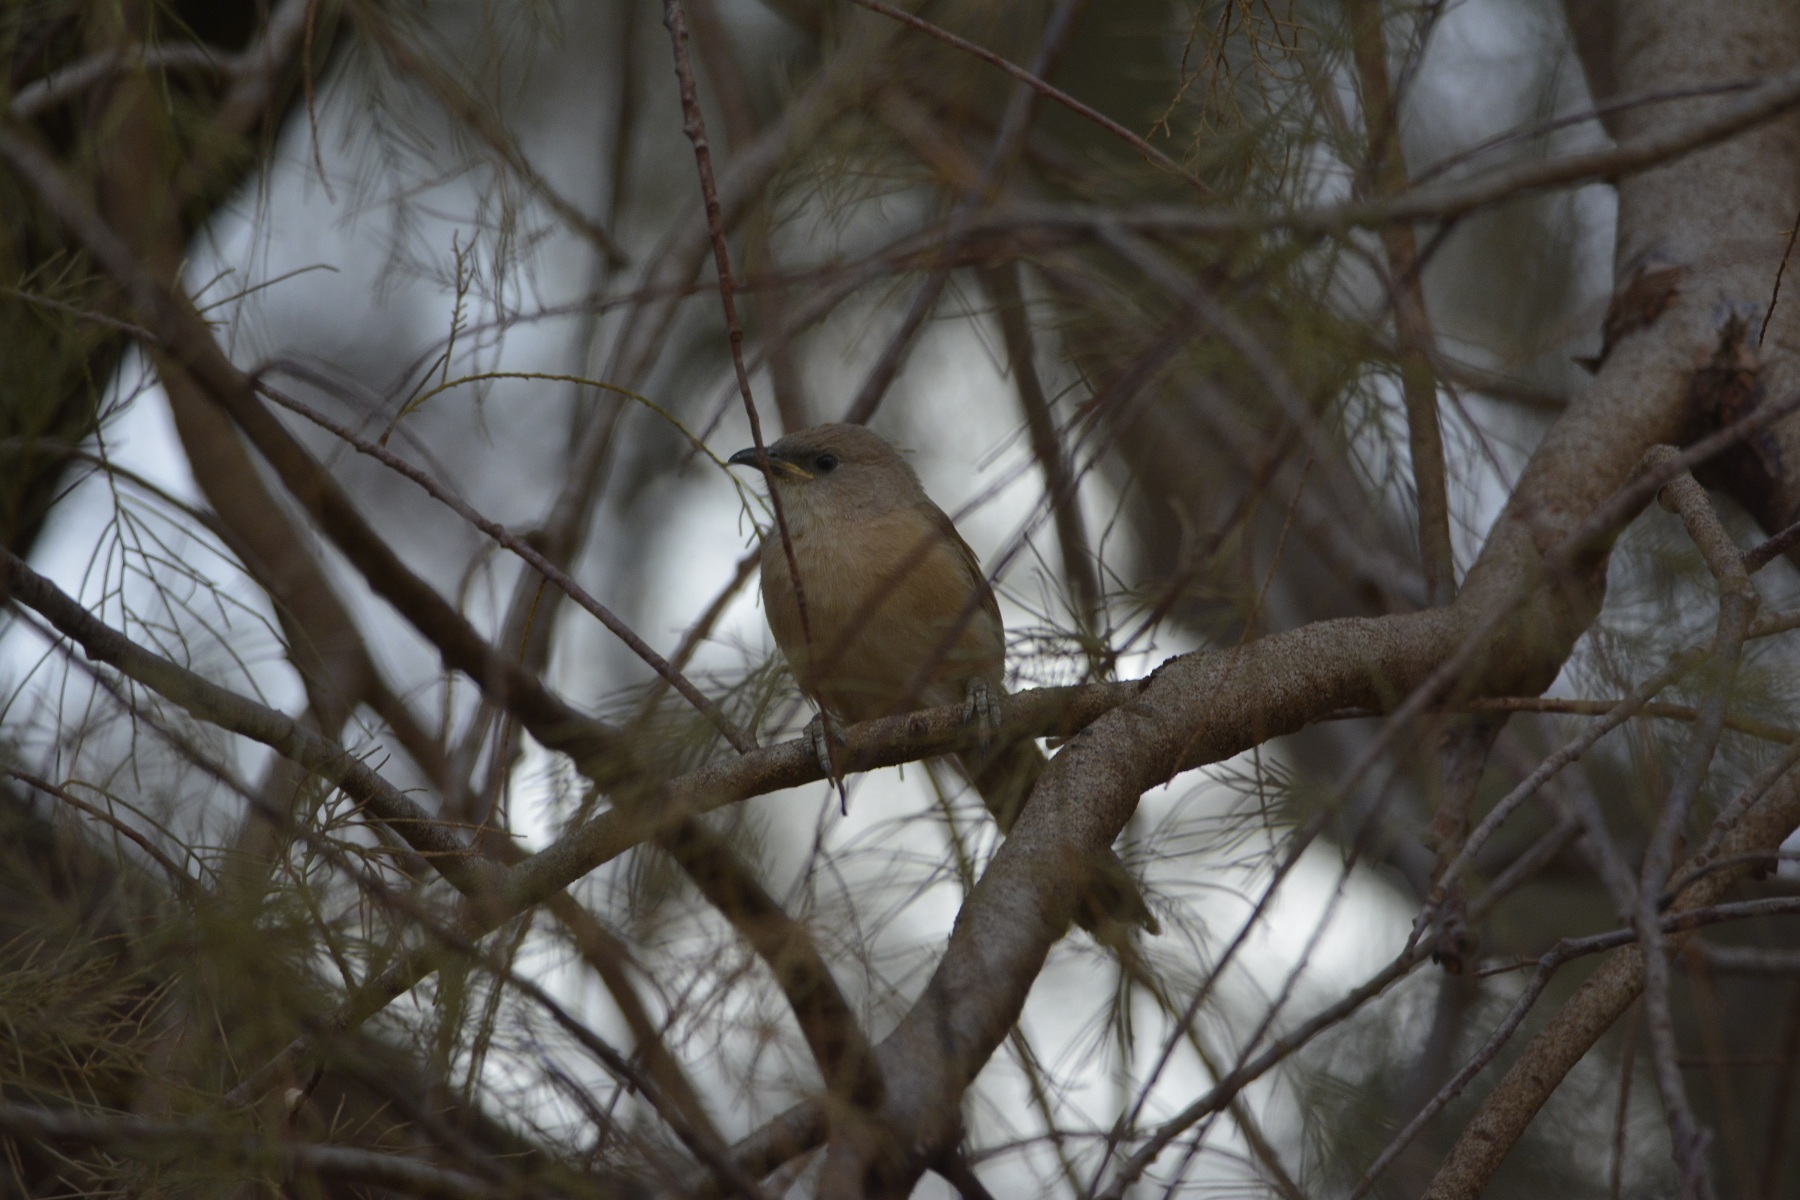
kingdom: Animalia
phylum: Chordata
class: Aves
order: Passeriformes
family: Leiothrichidae
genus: Turdoides
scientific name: Turdoides fulva
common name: Fulvous babbler
